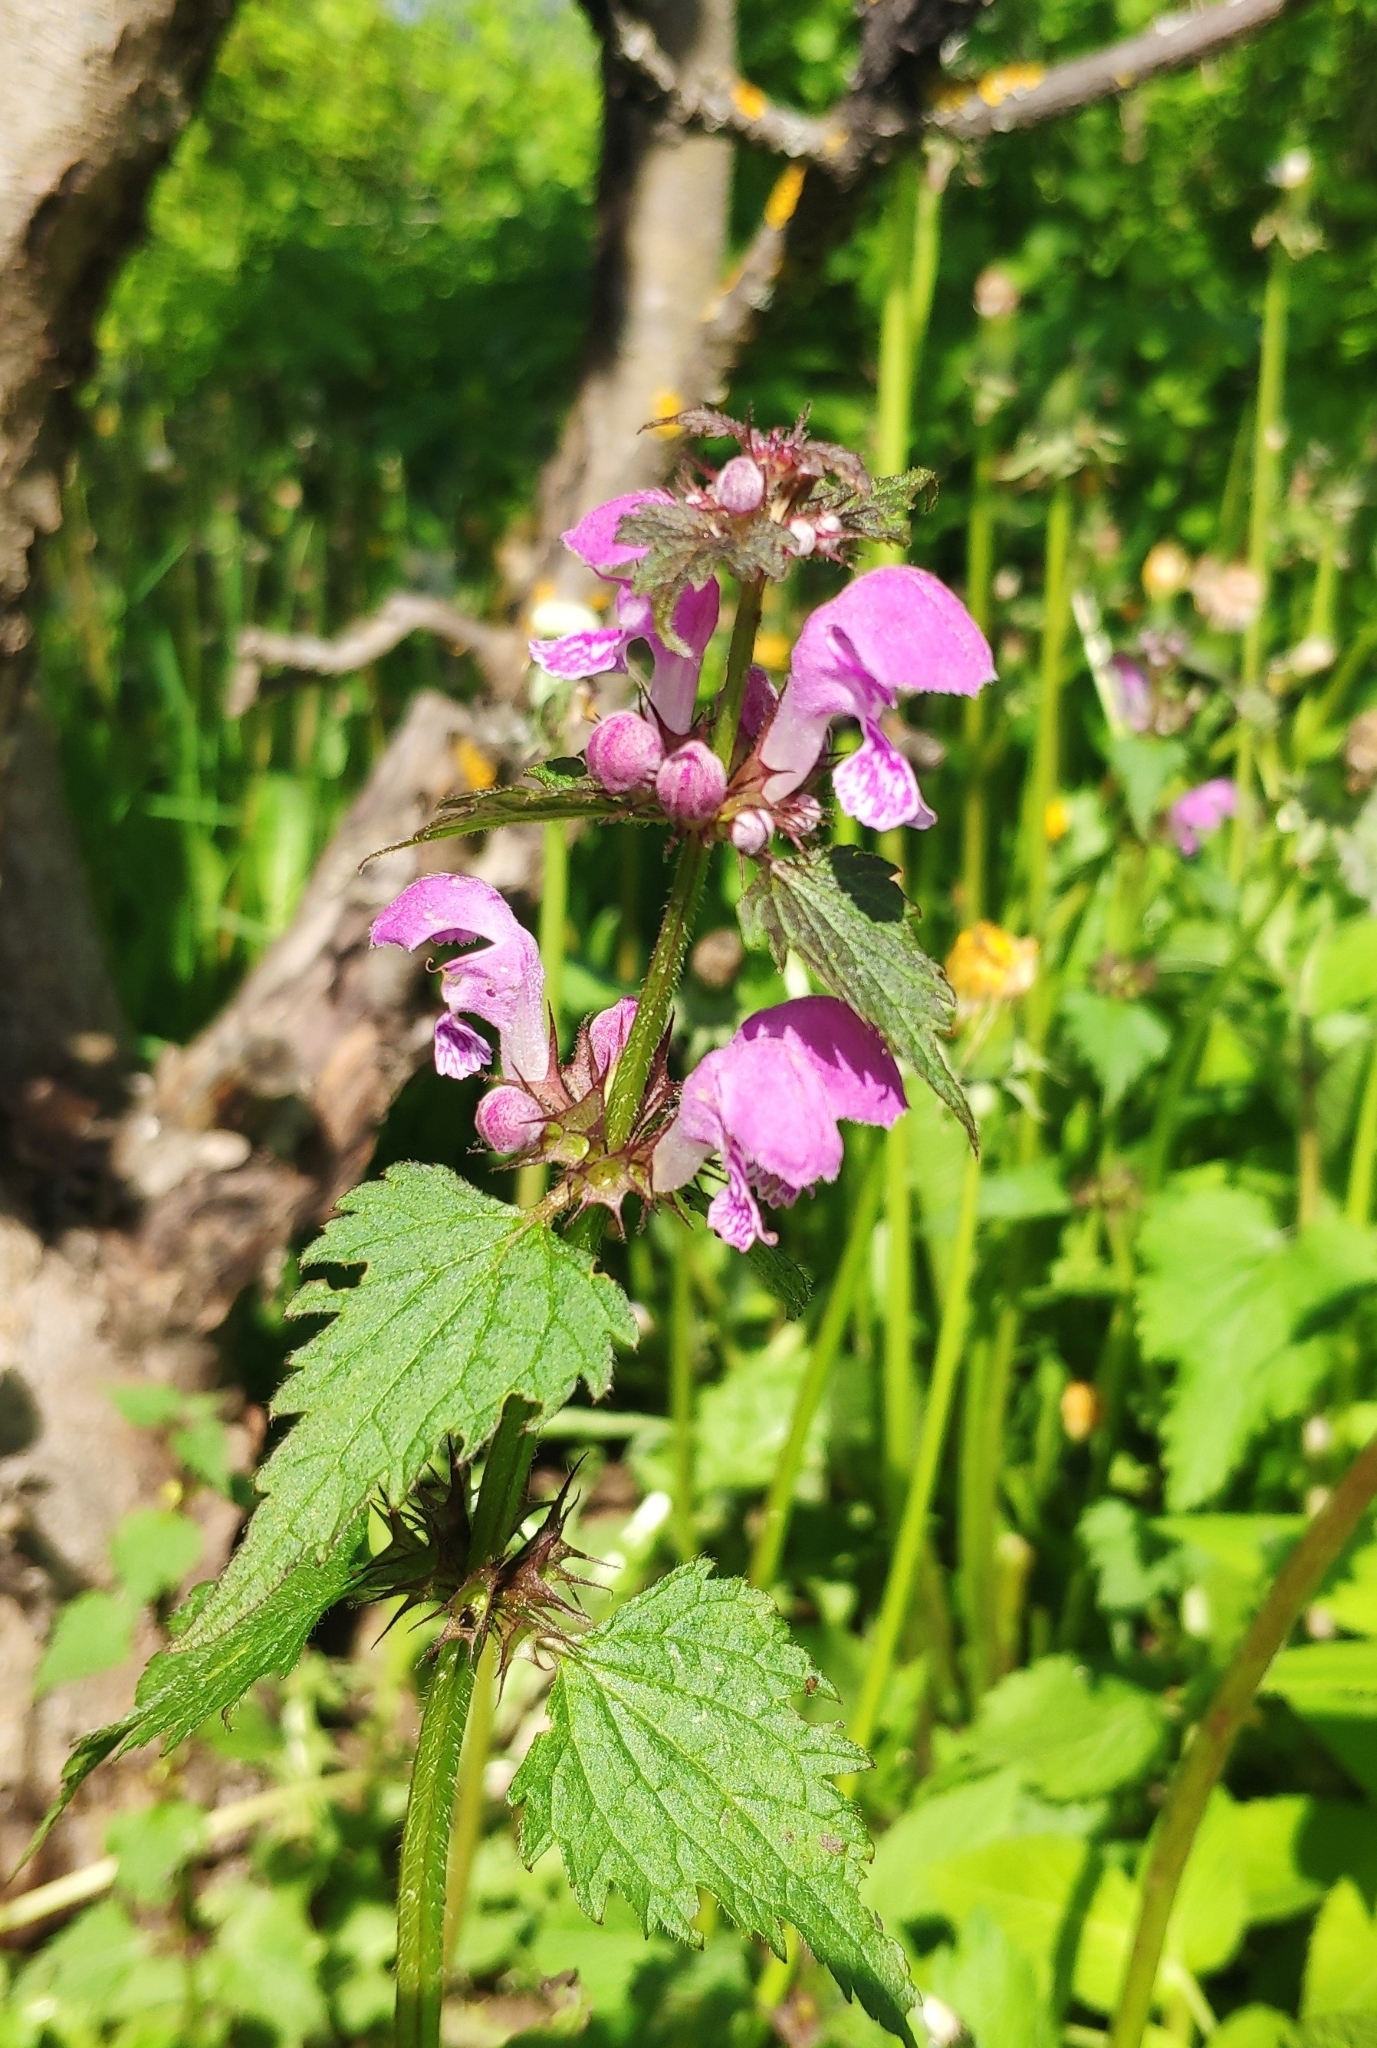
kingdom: Plantae
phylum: Tracheophyta
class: Magnoliopsida
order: Lamiales
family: Lamiaceae
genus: Lamium
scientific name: Lamium maculatum
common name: Spotted dead-nettle
